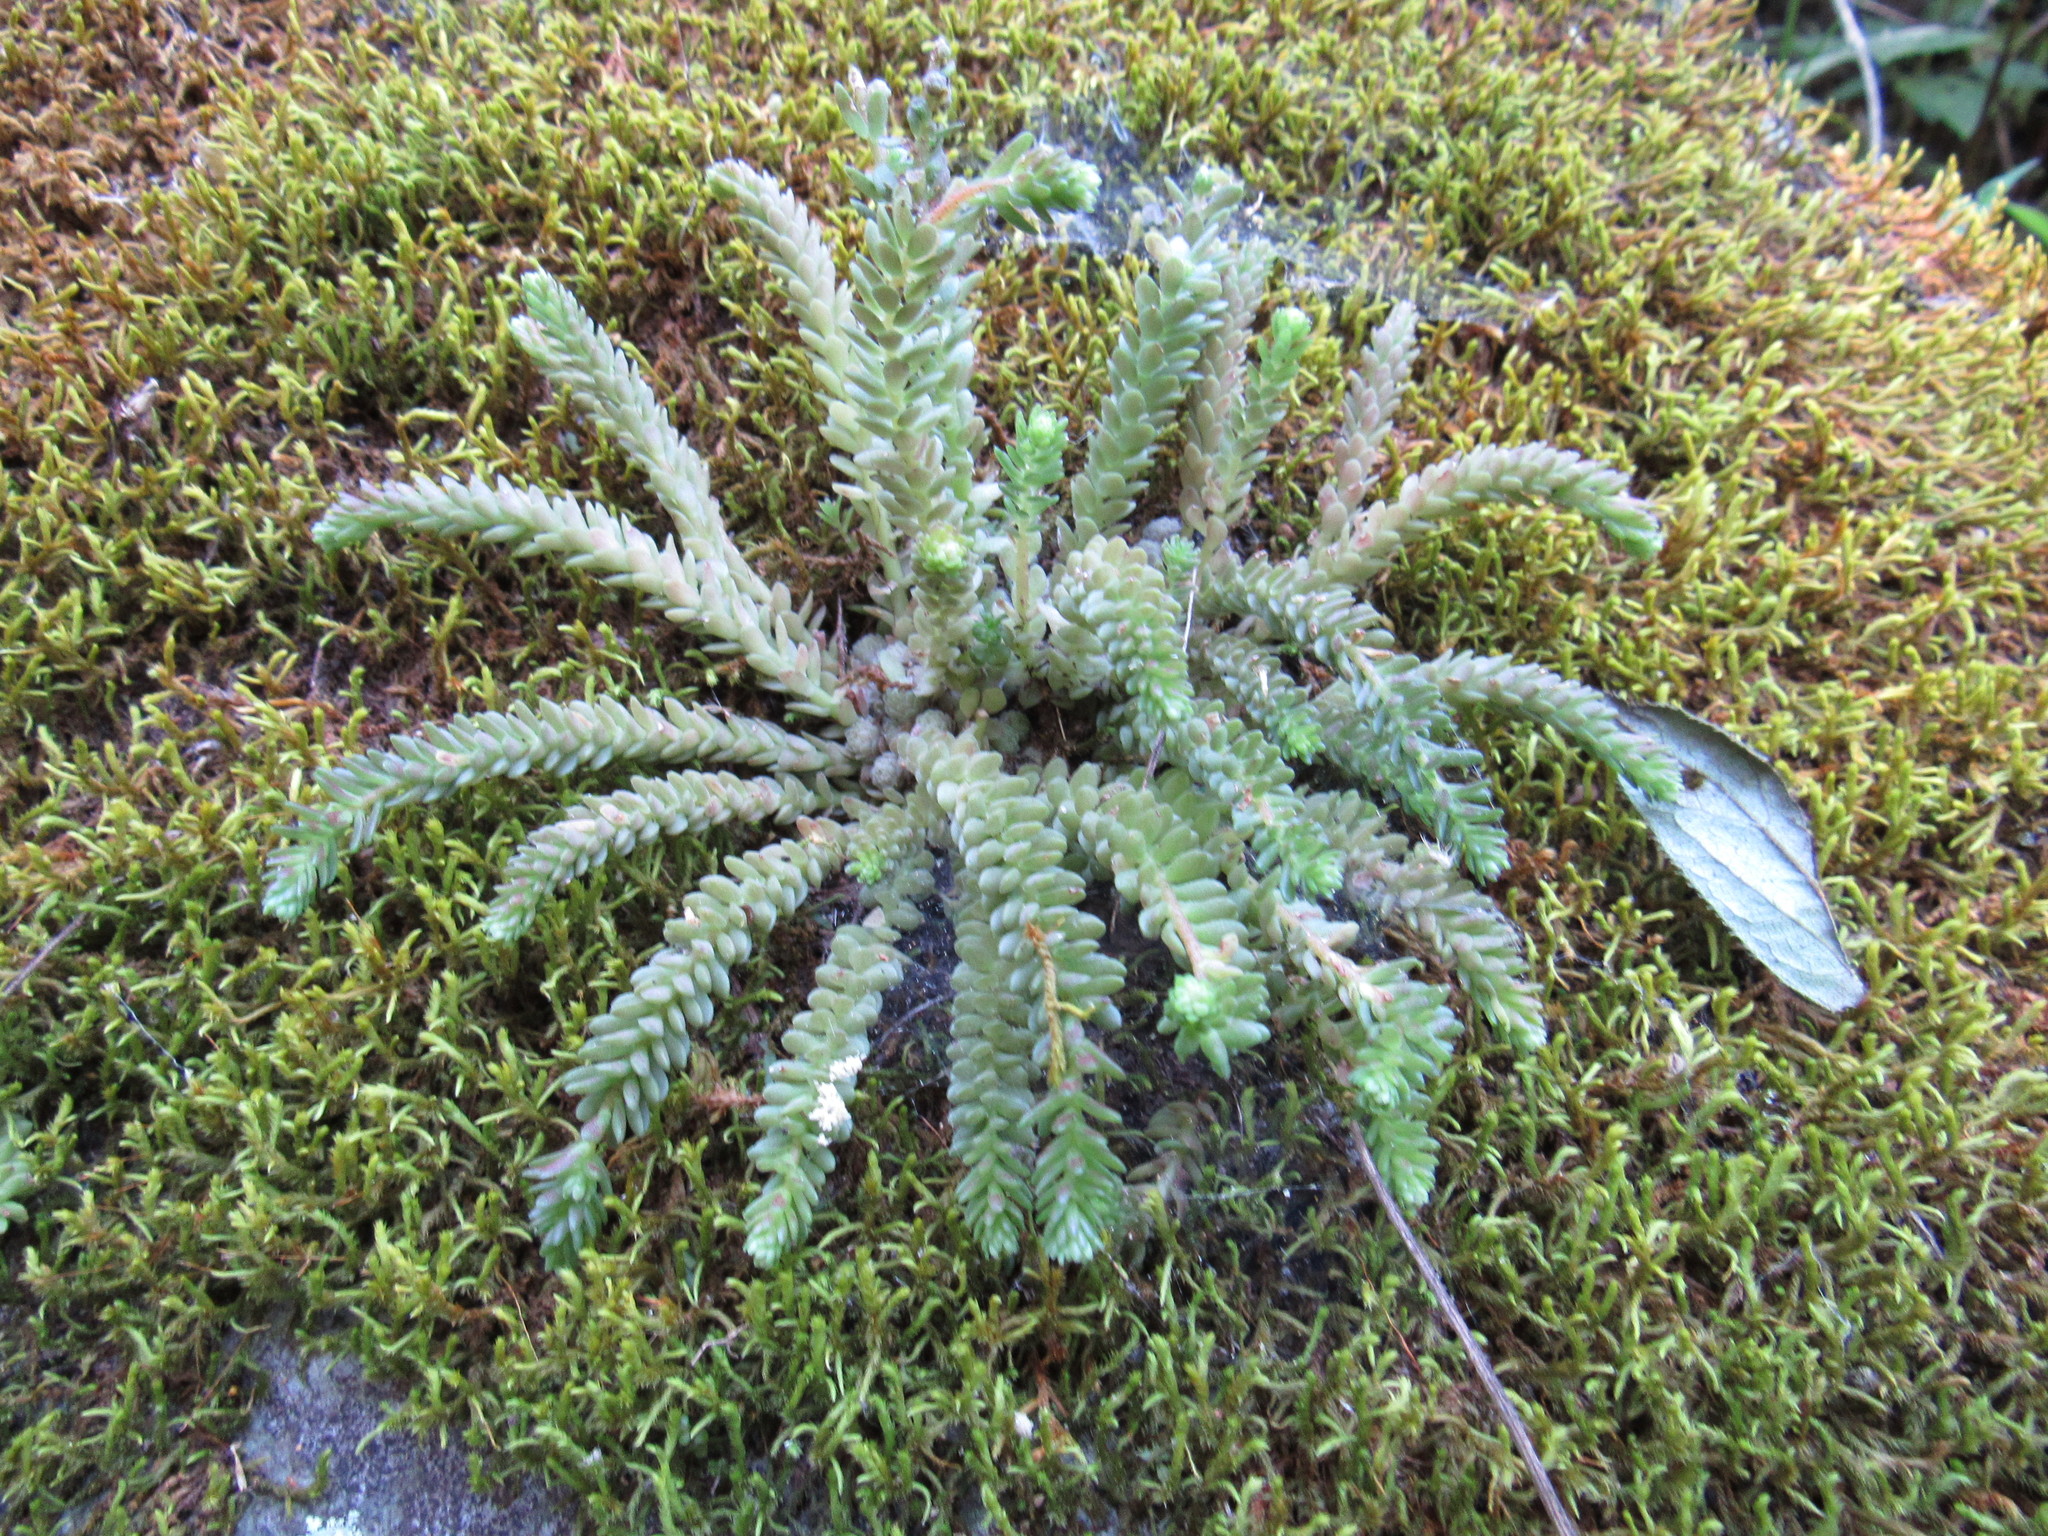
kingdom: Plantae
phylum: Tracheophyta
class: Magnoliopsida
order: Saxifragales
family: Crassulaceae
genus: Sedum
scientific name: Sedum greggii
